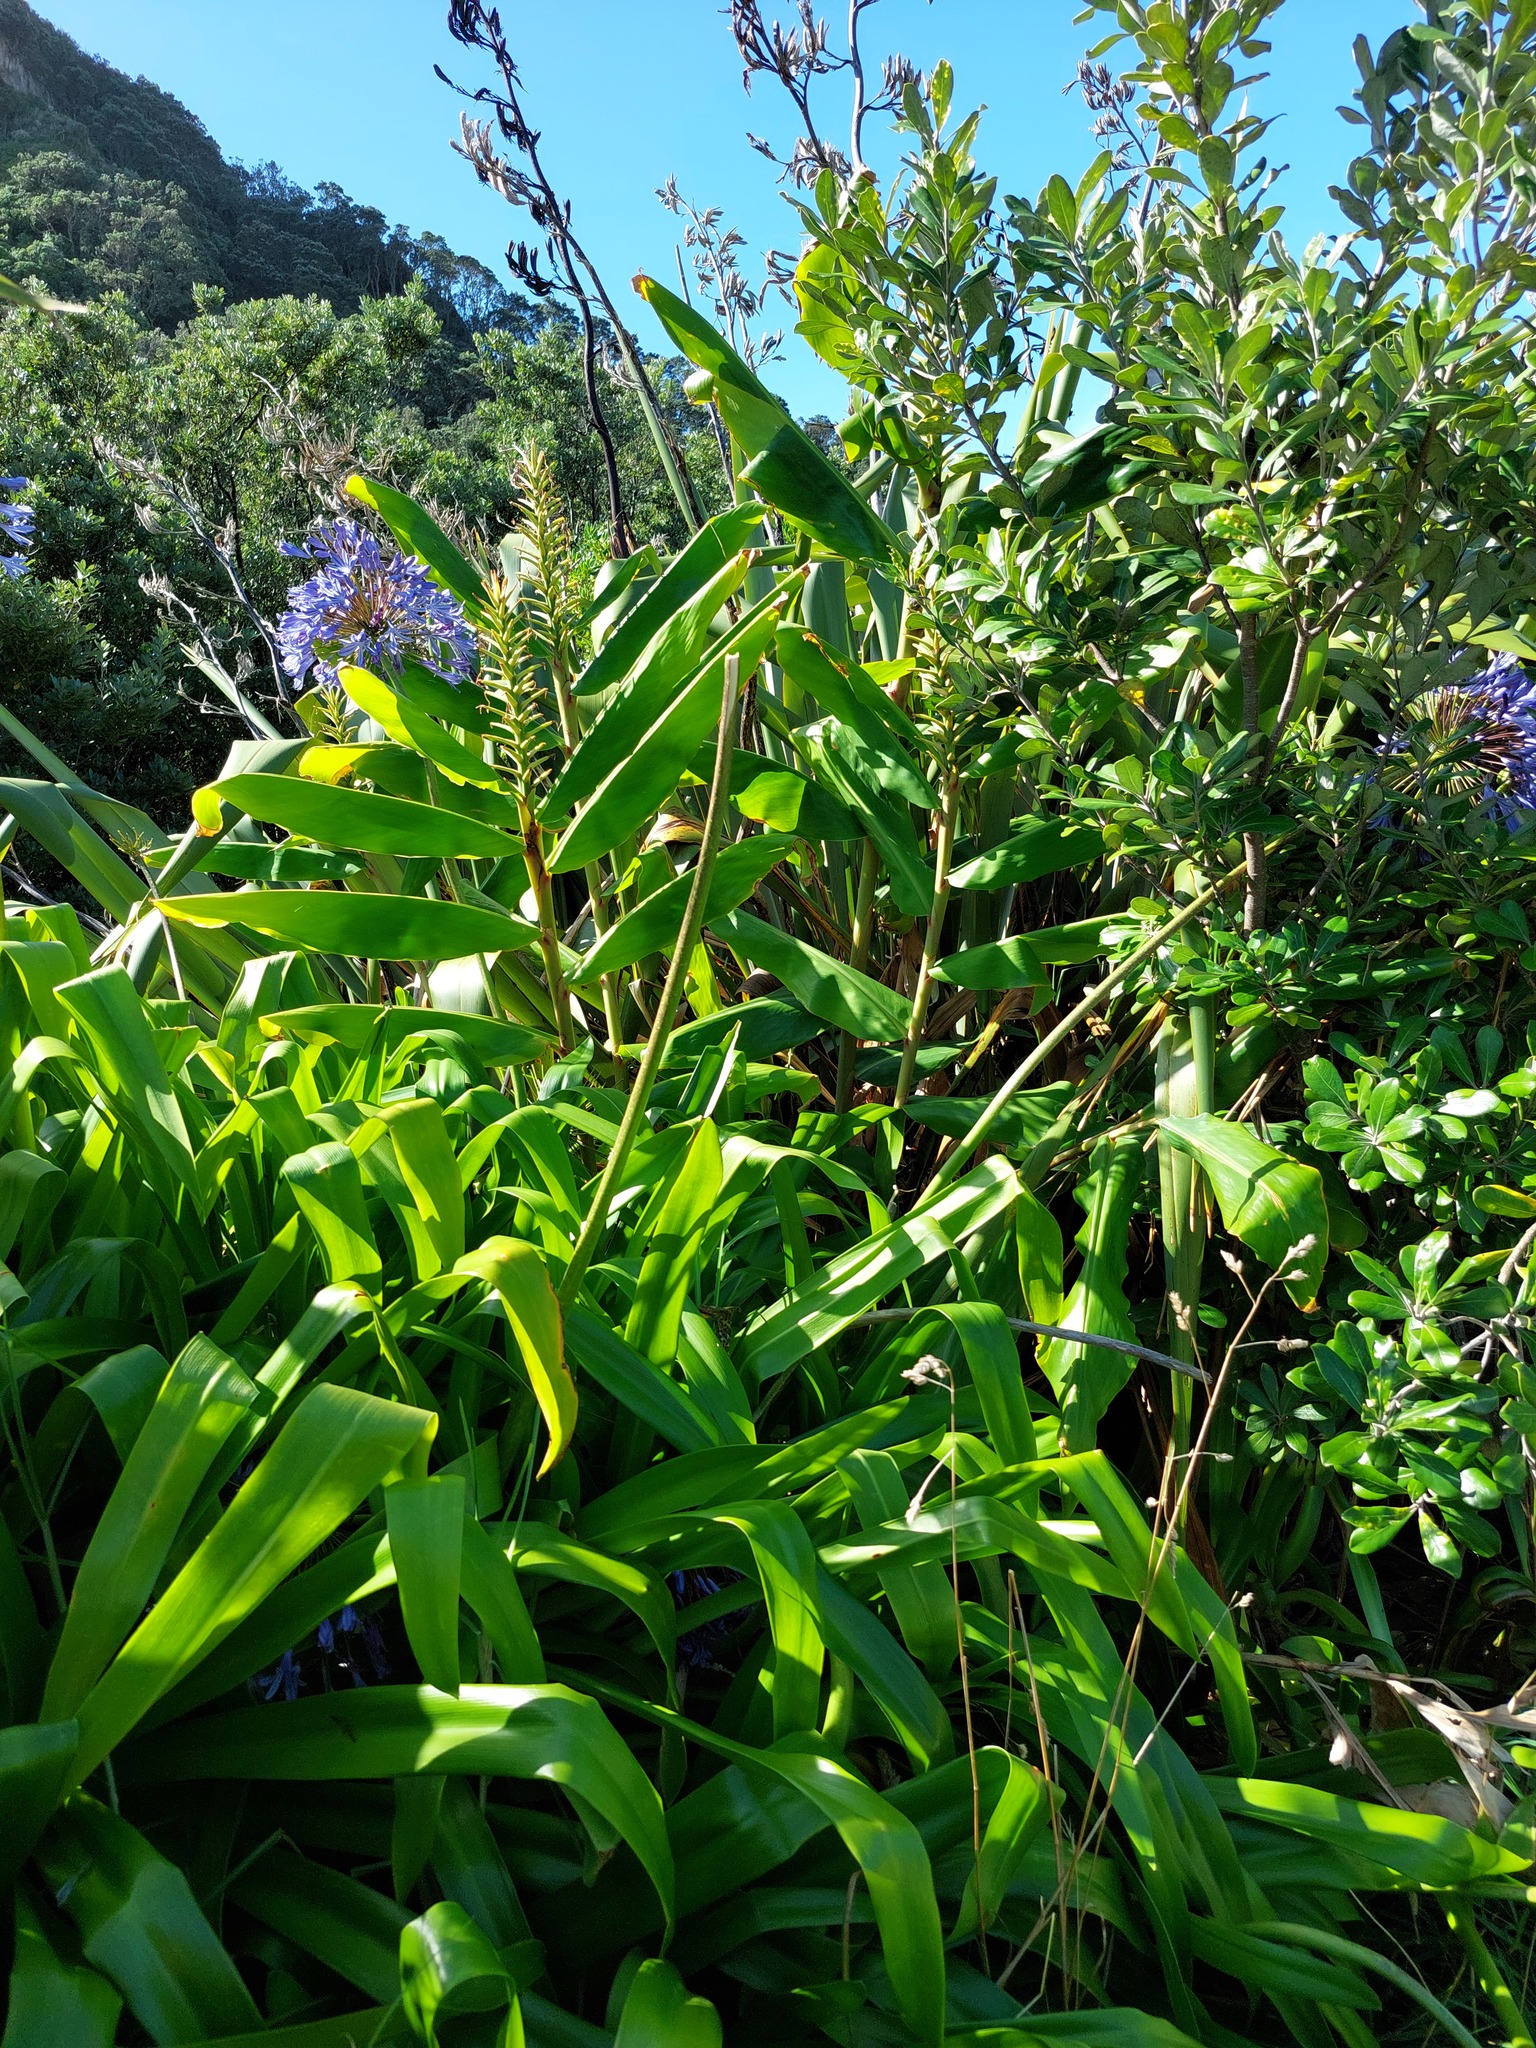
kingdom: Plantae
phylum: Tracheophyta
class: Liliopsida
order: Asparagales
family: Amaryllidaceae
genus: Agapanthus
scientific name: Agapanthus praecox
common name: African-lily
